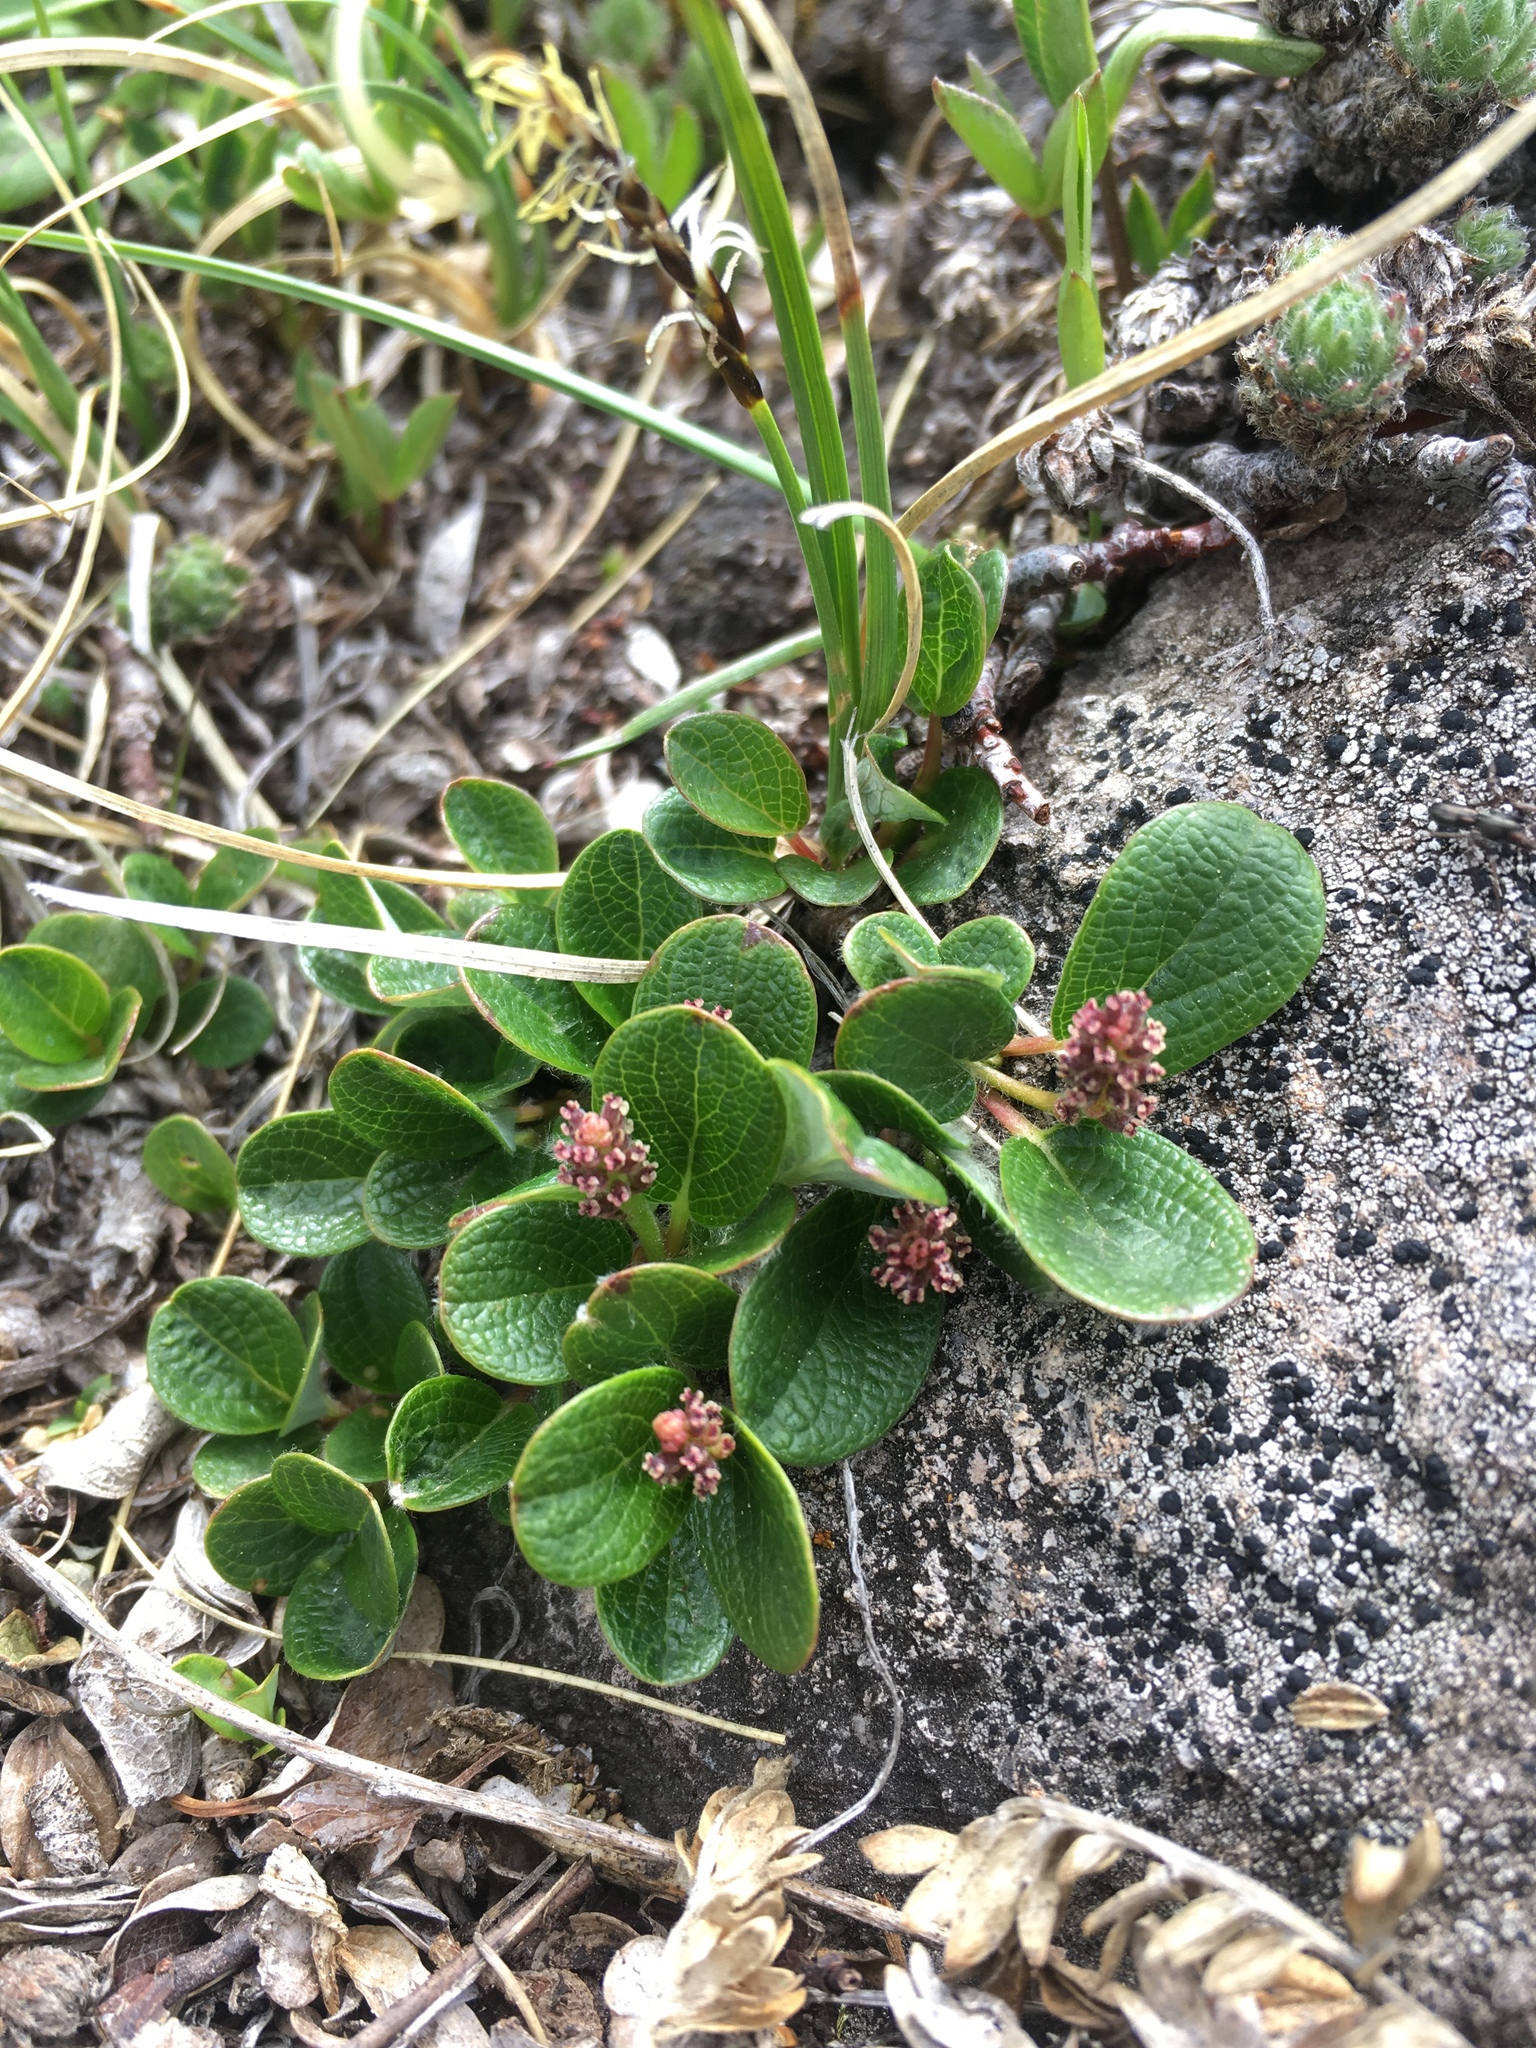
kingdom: Plantae
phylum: Tracheophyta
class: Magnoliopsida
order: Malpighiales
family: Salicaceae
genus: Salix
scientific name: Salix nivalis
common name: Dwarf snow willow
